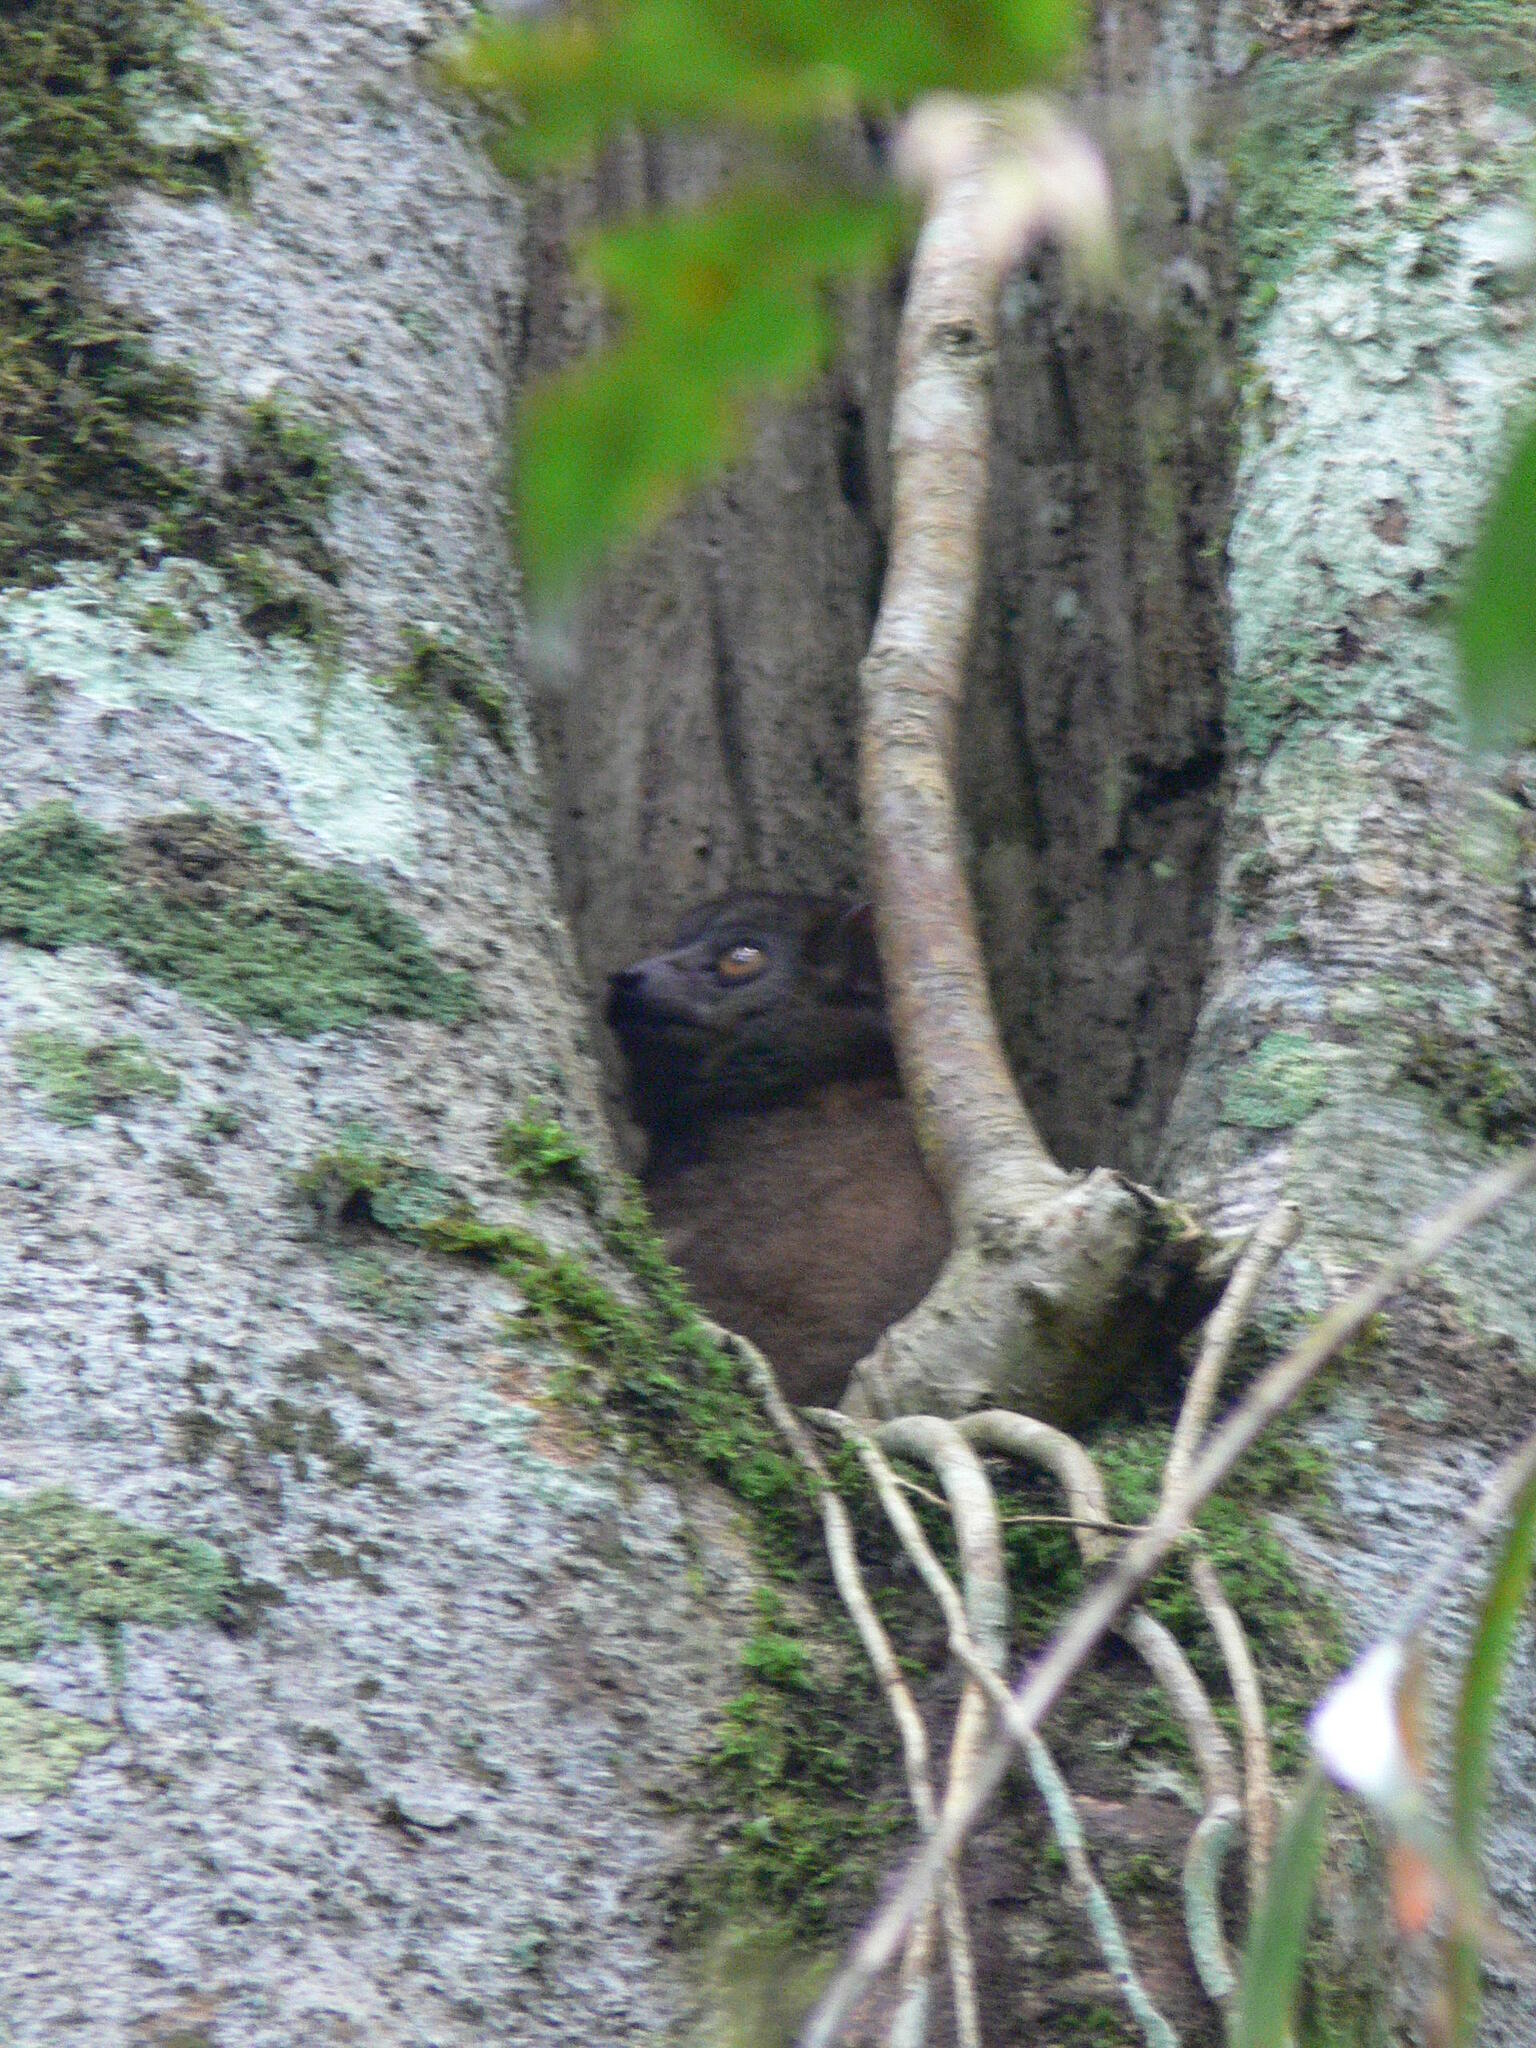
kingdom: Animalia
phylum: Chordata
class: Mammalia
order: Primates
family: Lepilemuridae
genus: Lepilemur
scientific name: Lepilemur microdon
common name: Small-toothed sportive lemur
